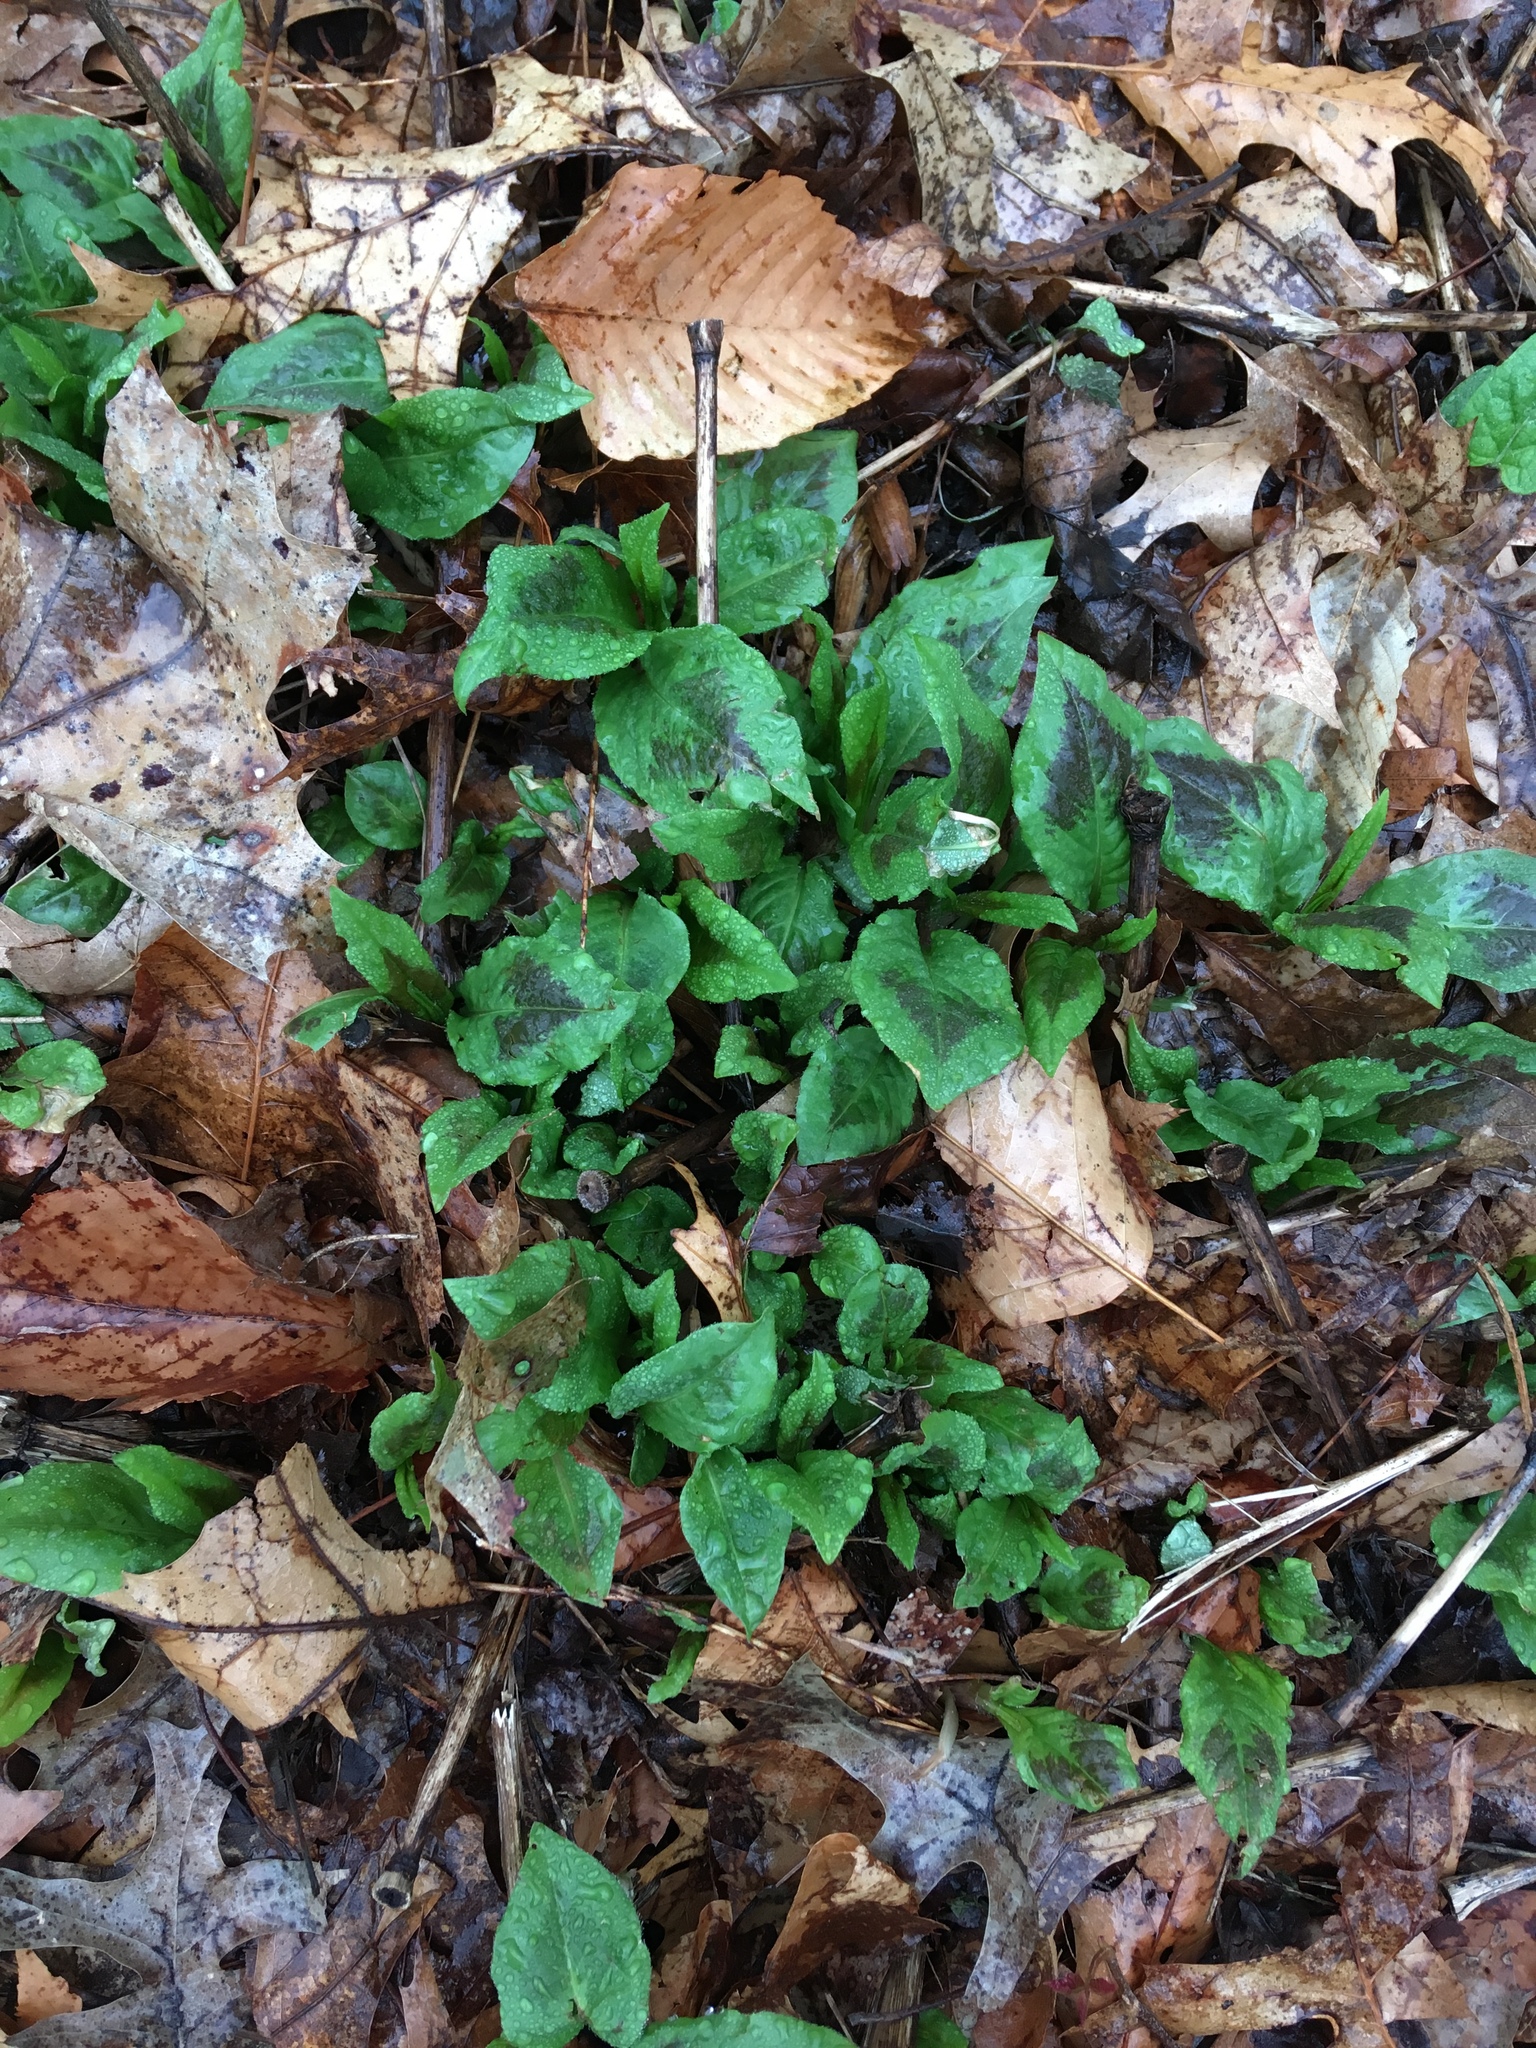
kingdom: Plantae
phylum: Tracheophyta
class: Magnoliopsida
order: Caryophyllales
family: Polygonaceae
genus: Persicaria
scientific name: Persicaria virginiana
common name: Jumpseed
